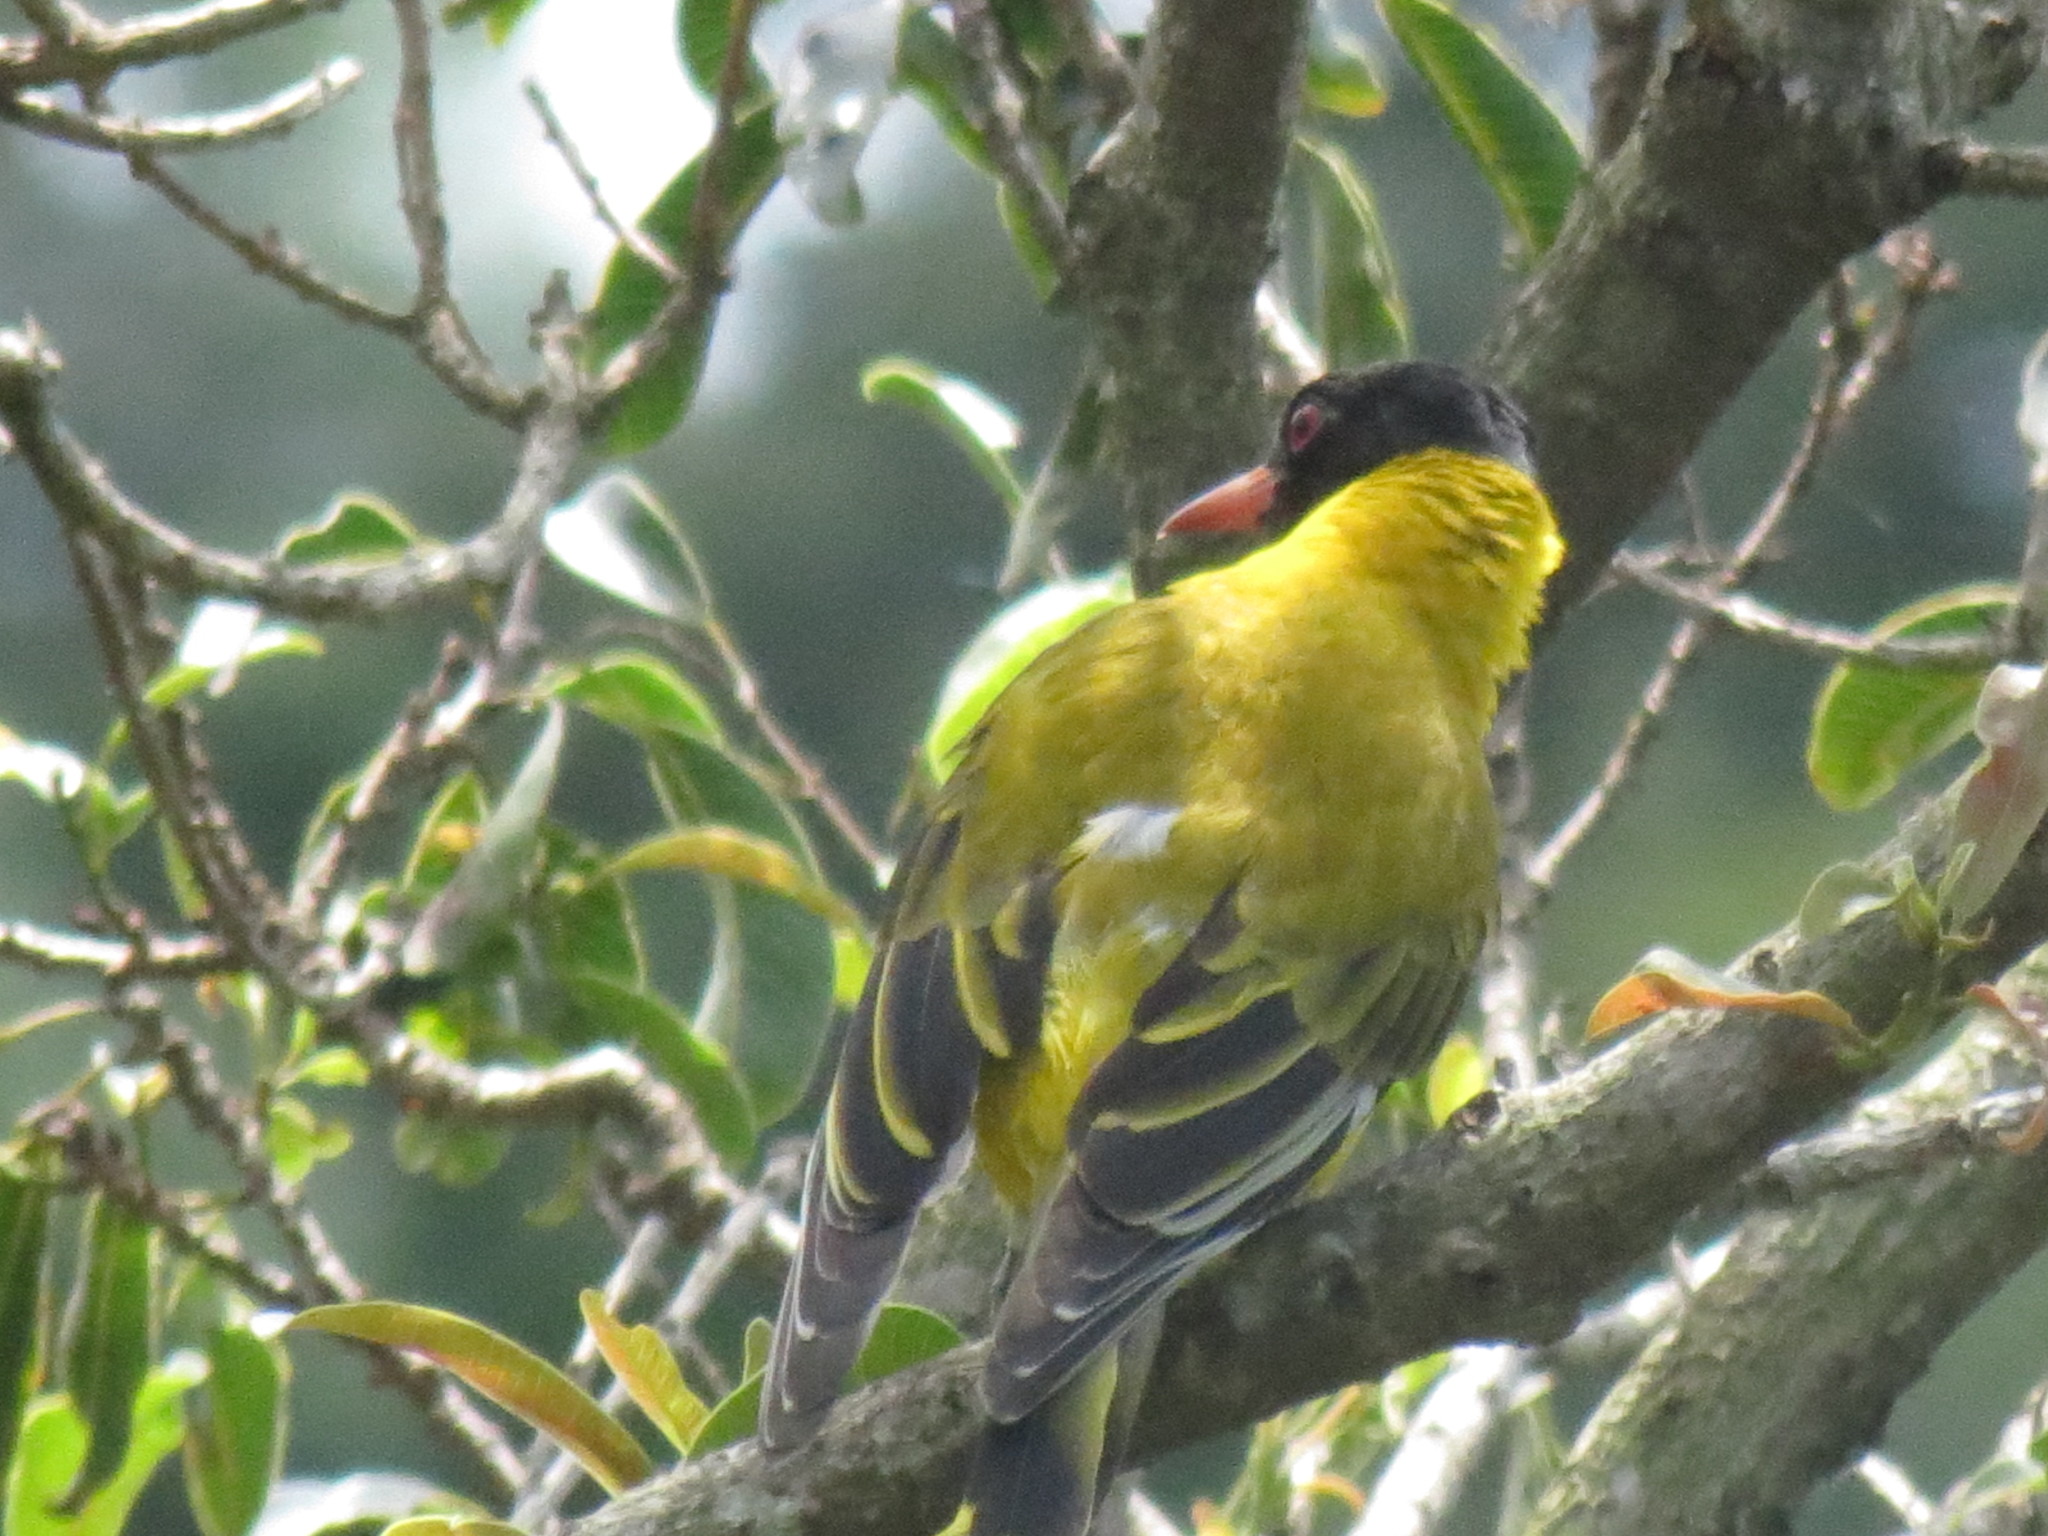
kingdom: Animalia
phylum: Chordata
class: Aves
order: Passeriformes
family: Oriolidae
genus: Oriolus
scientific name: Oriolus larvatus
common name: Black-headed oriole
